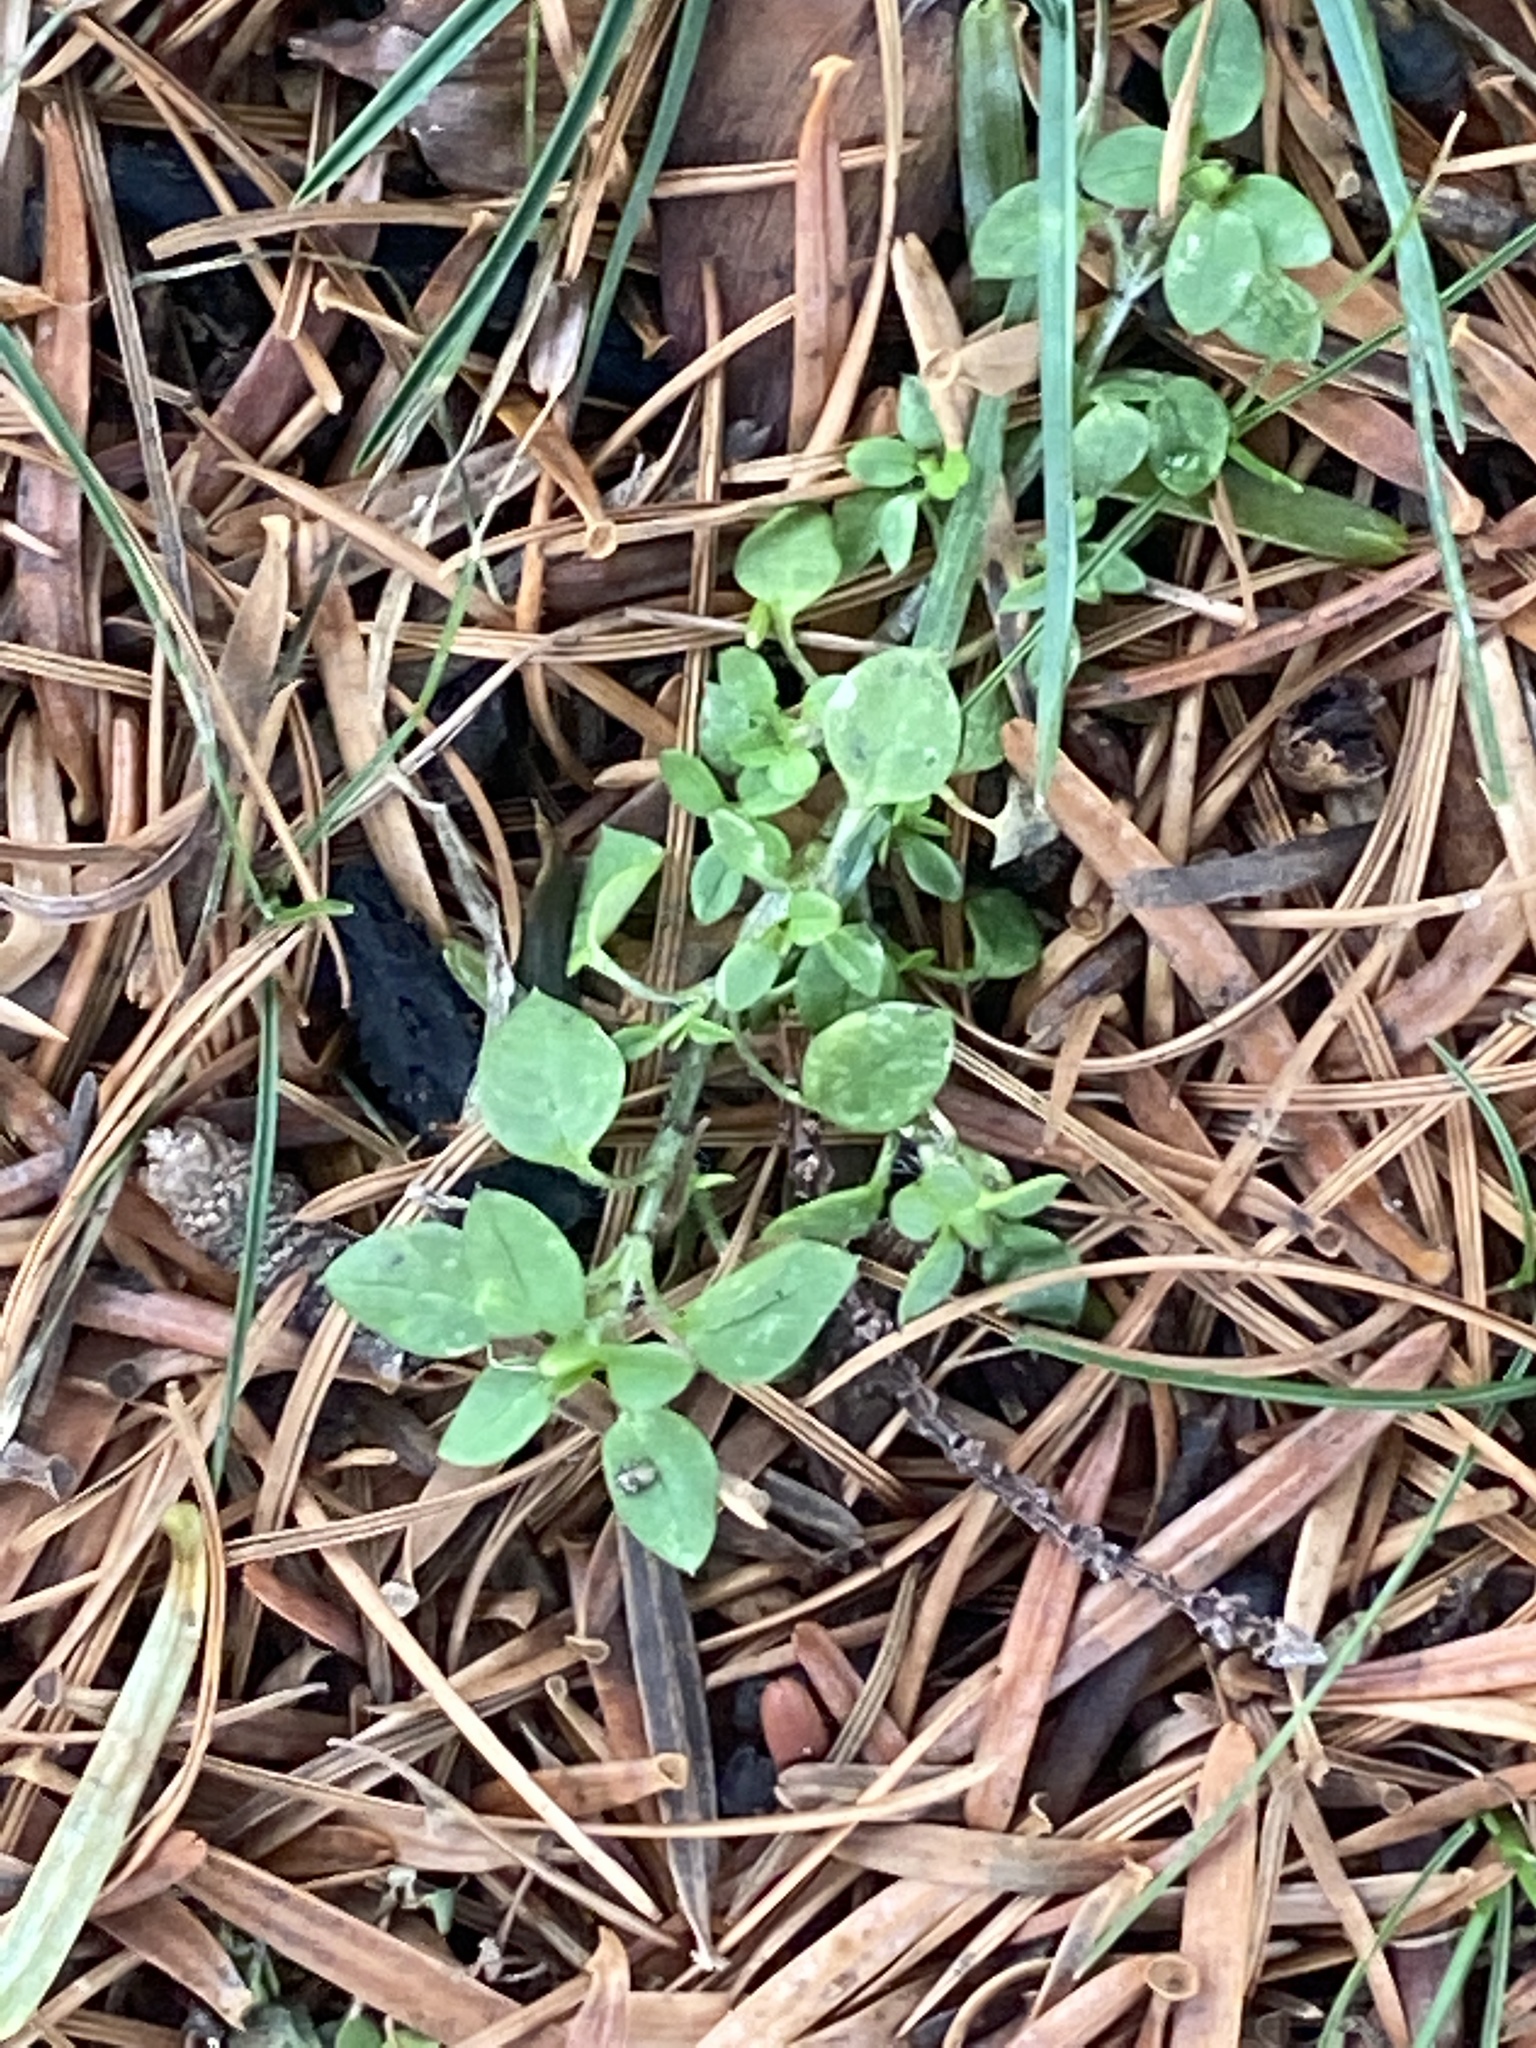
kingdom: Plantae
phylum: Tracheophyta
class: Magnoliopsida
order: Caryophyllales
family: Caryophyllaceae
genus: Stellaria
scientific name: Stellaria media
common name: Common chickweed
